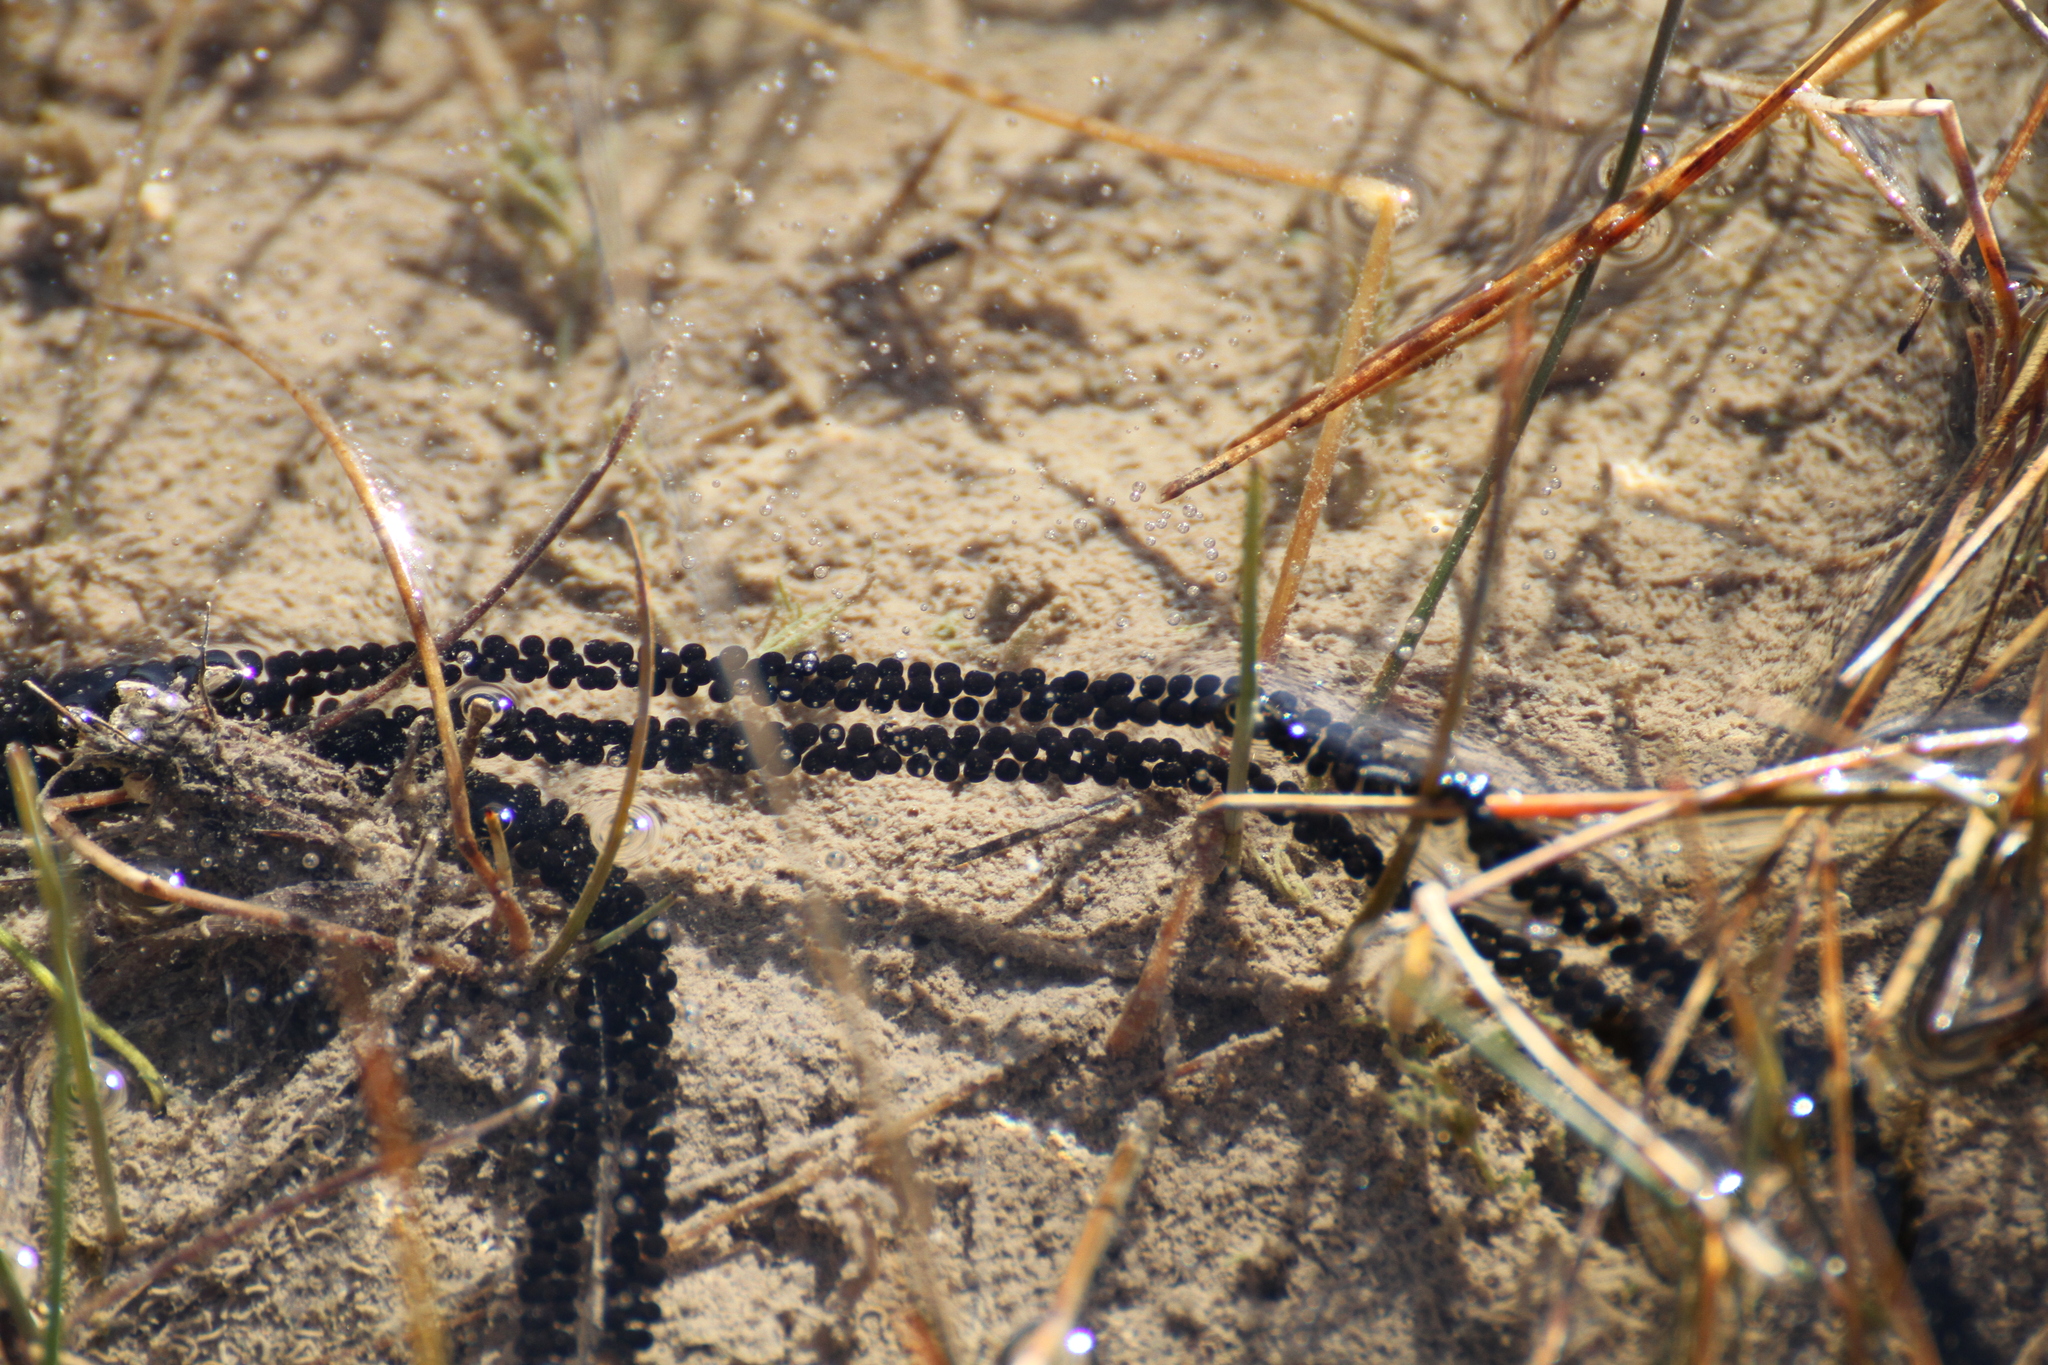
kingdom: Animalia
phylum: Chordata
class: Amphibia
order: Anura
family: Bufonidae
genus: Epidalea
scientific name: Epidalea calamita
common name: Natterjack toad
